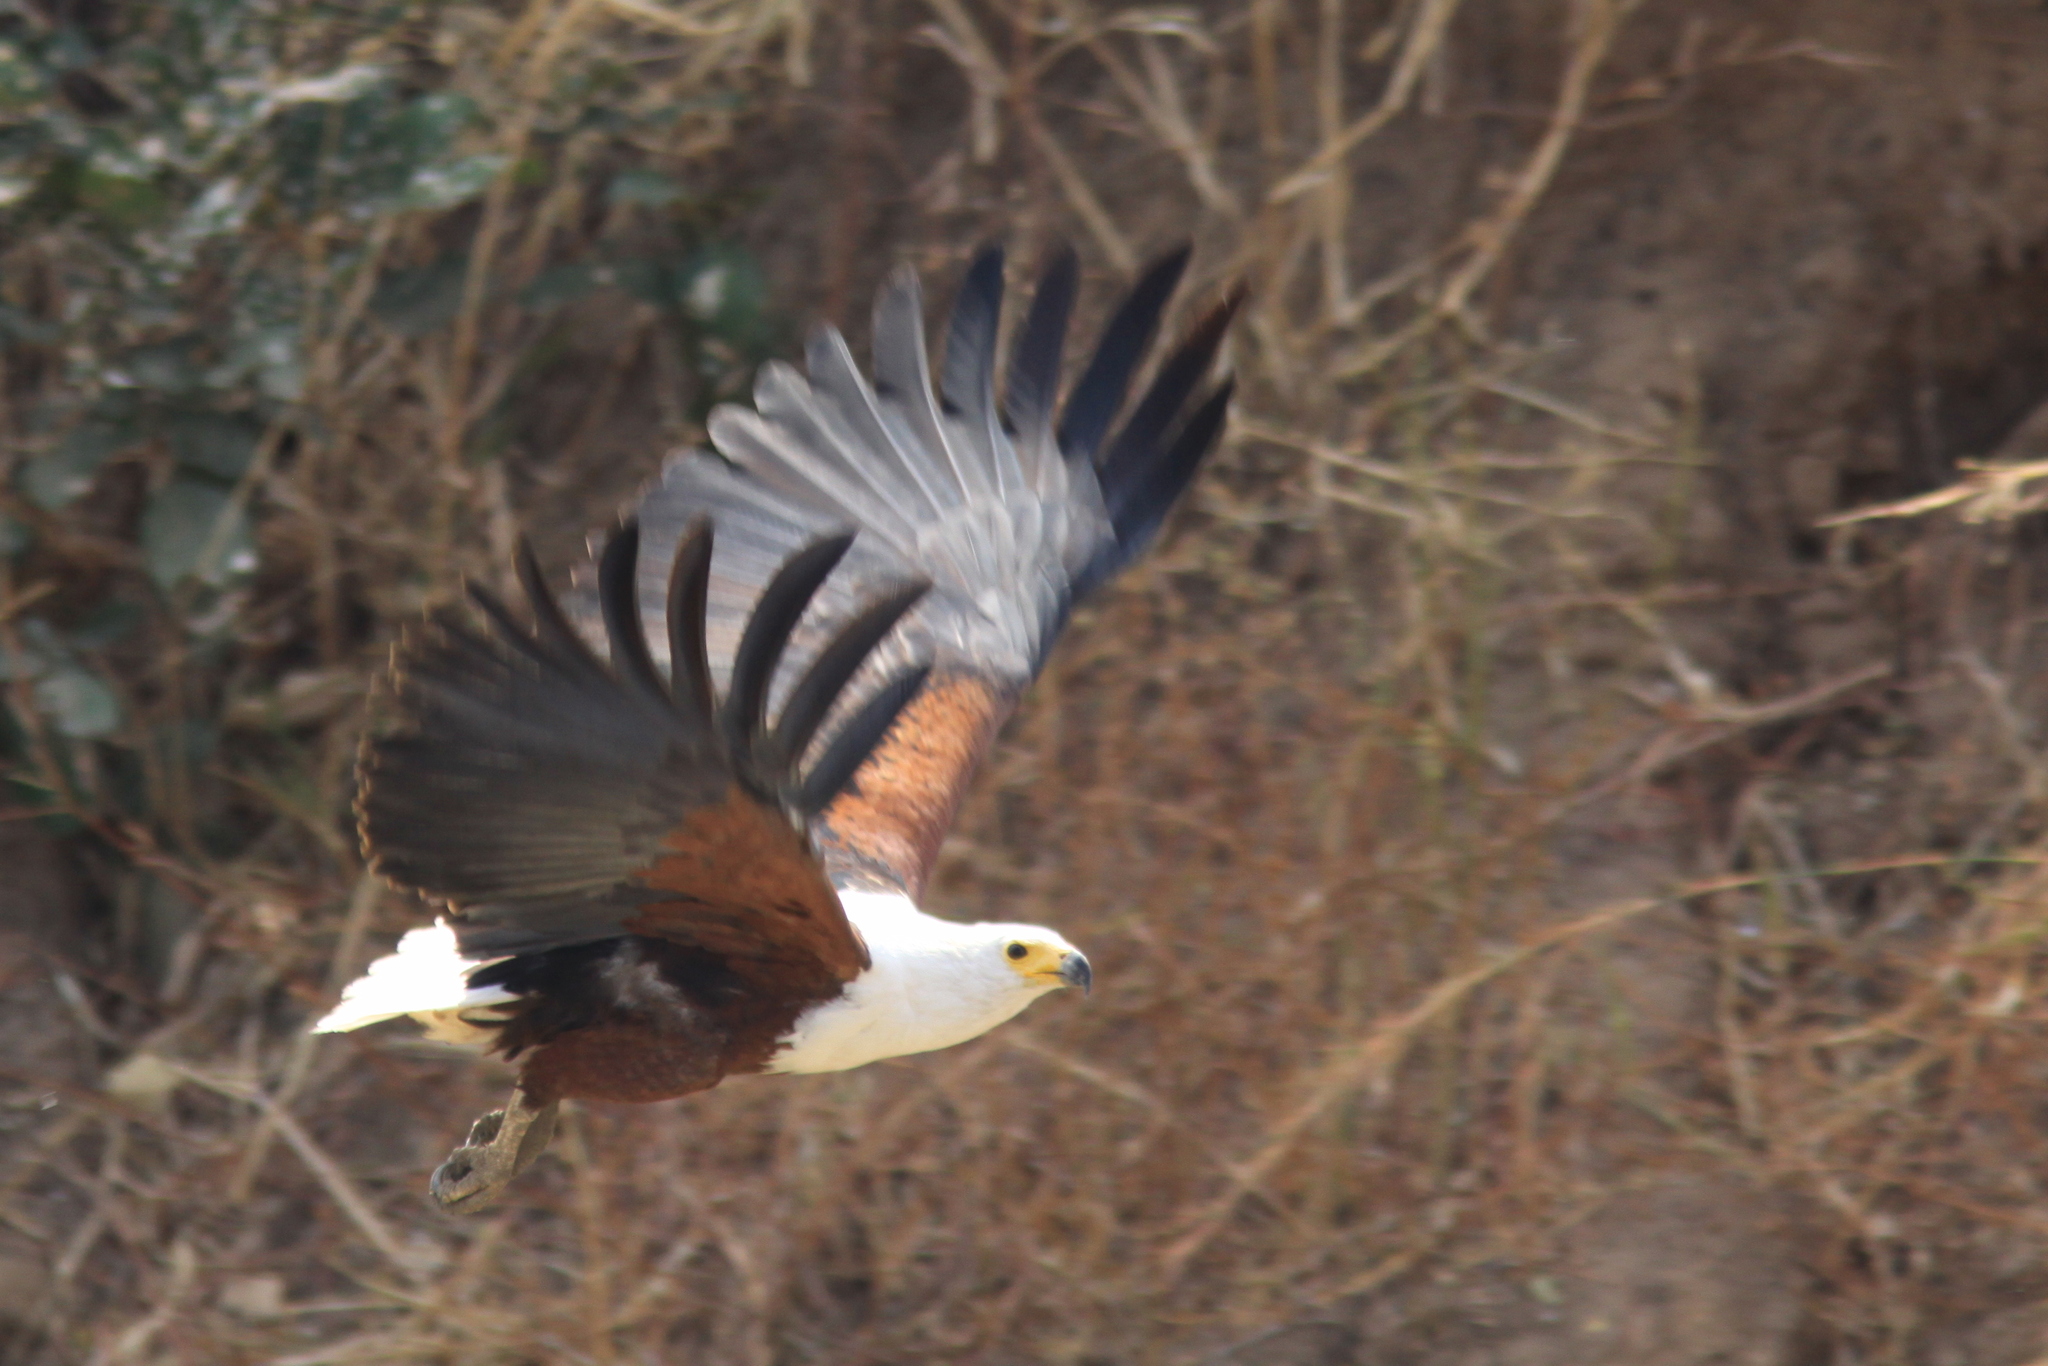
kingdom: Animalia
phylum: Chordata
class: Aves
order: Accipitriformes
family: Accipitridae
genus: Haliaeetus
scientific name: Haliaeetus vocifer
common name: African fish eagle
